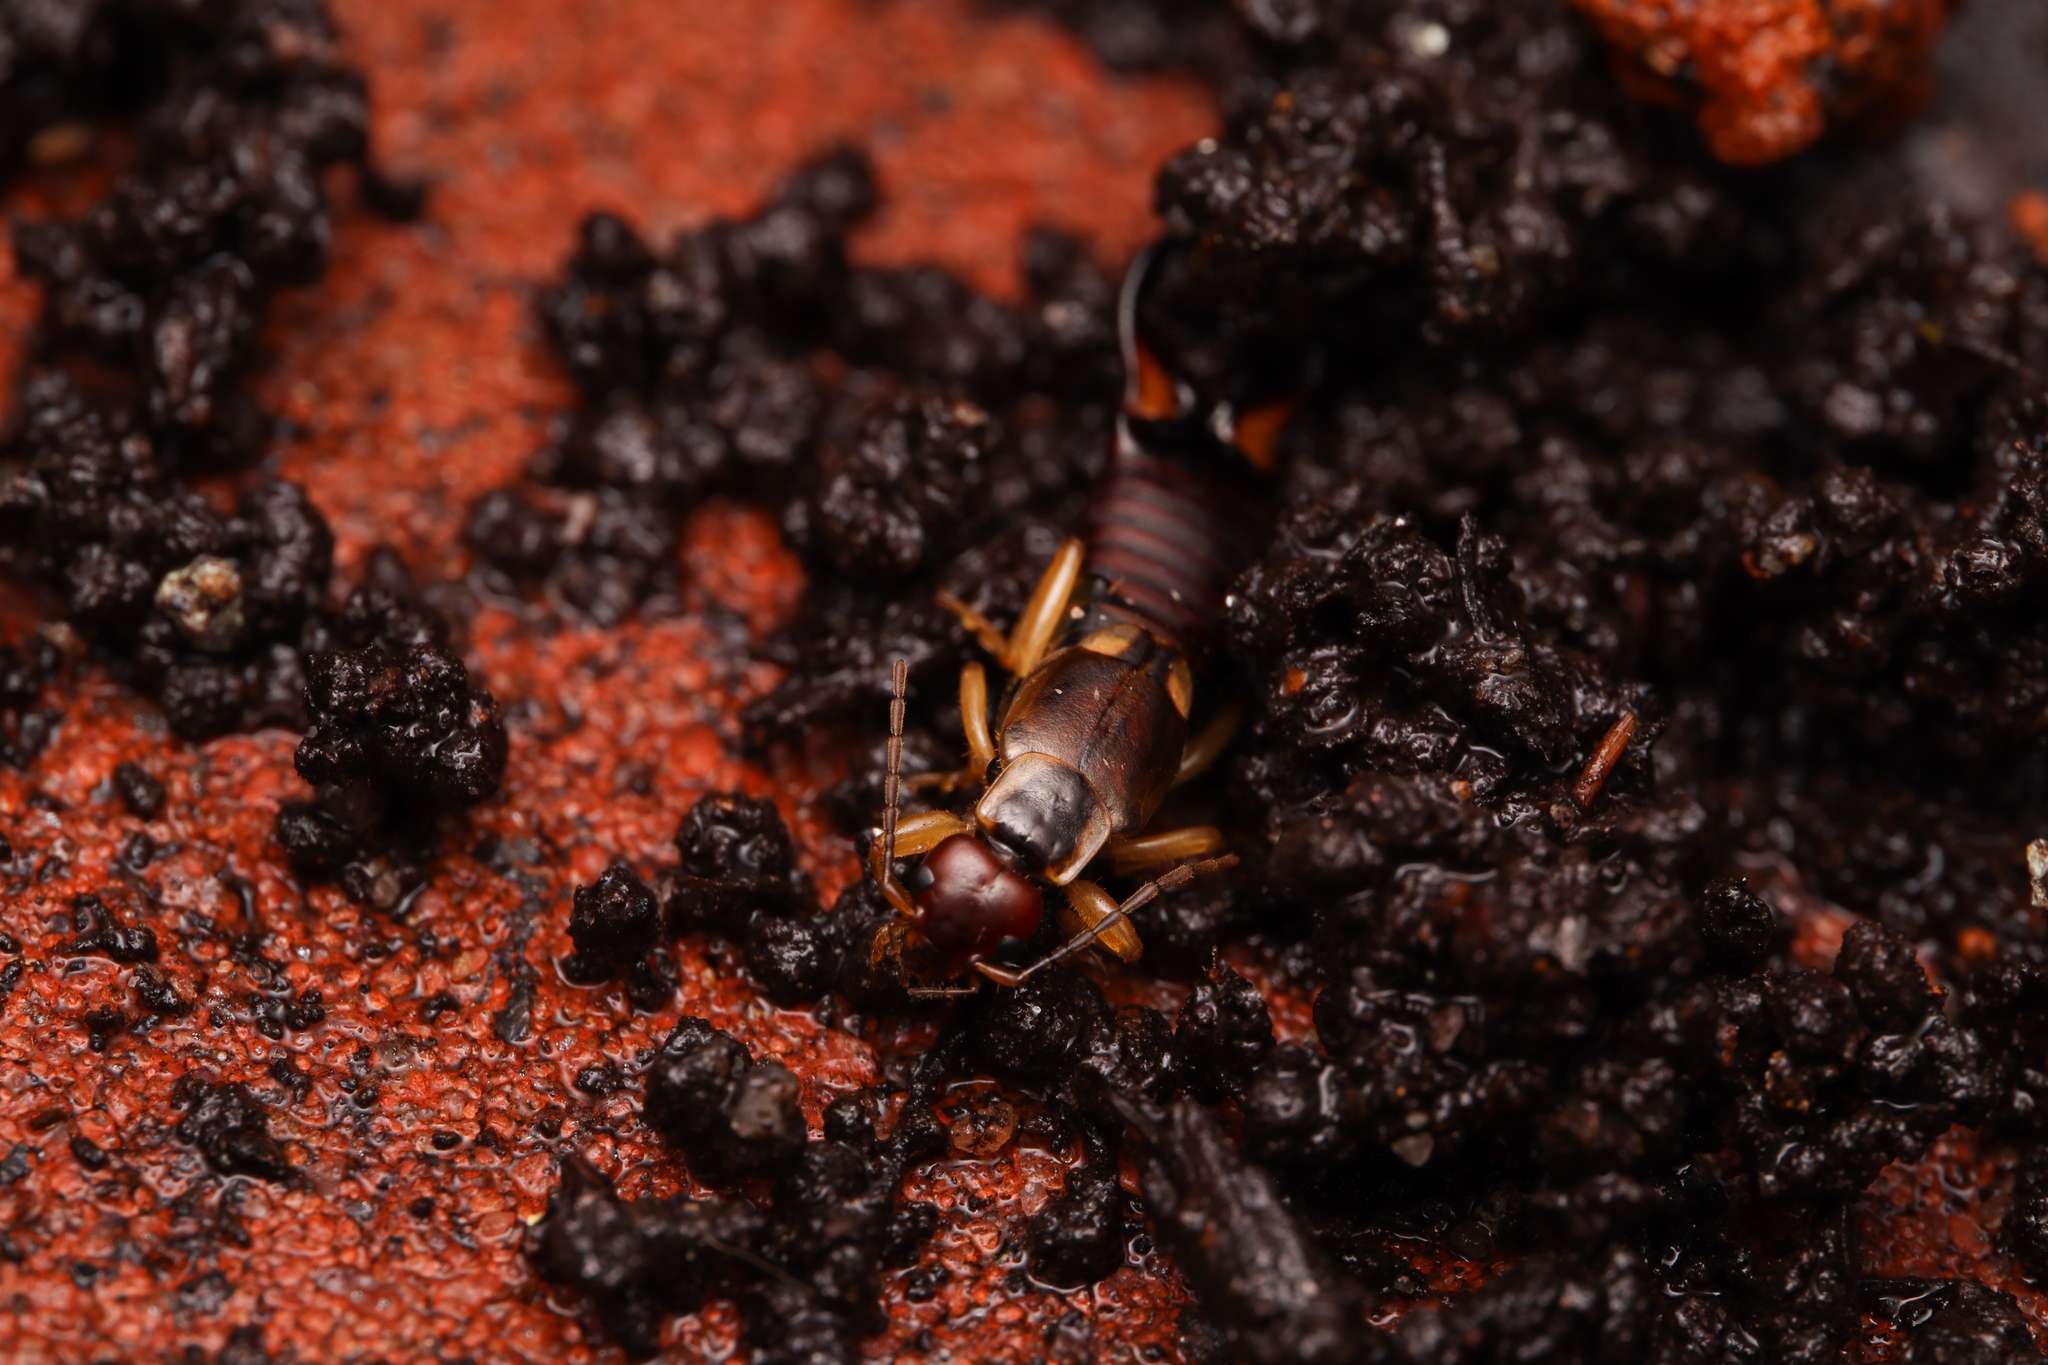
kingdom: Animalia
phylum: Arthropoda
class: Insecta
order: Dermaptera
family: Forficulidae
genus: Forficula
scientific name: Forficula auricularia
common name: European earwig
